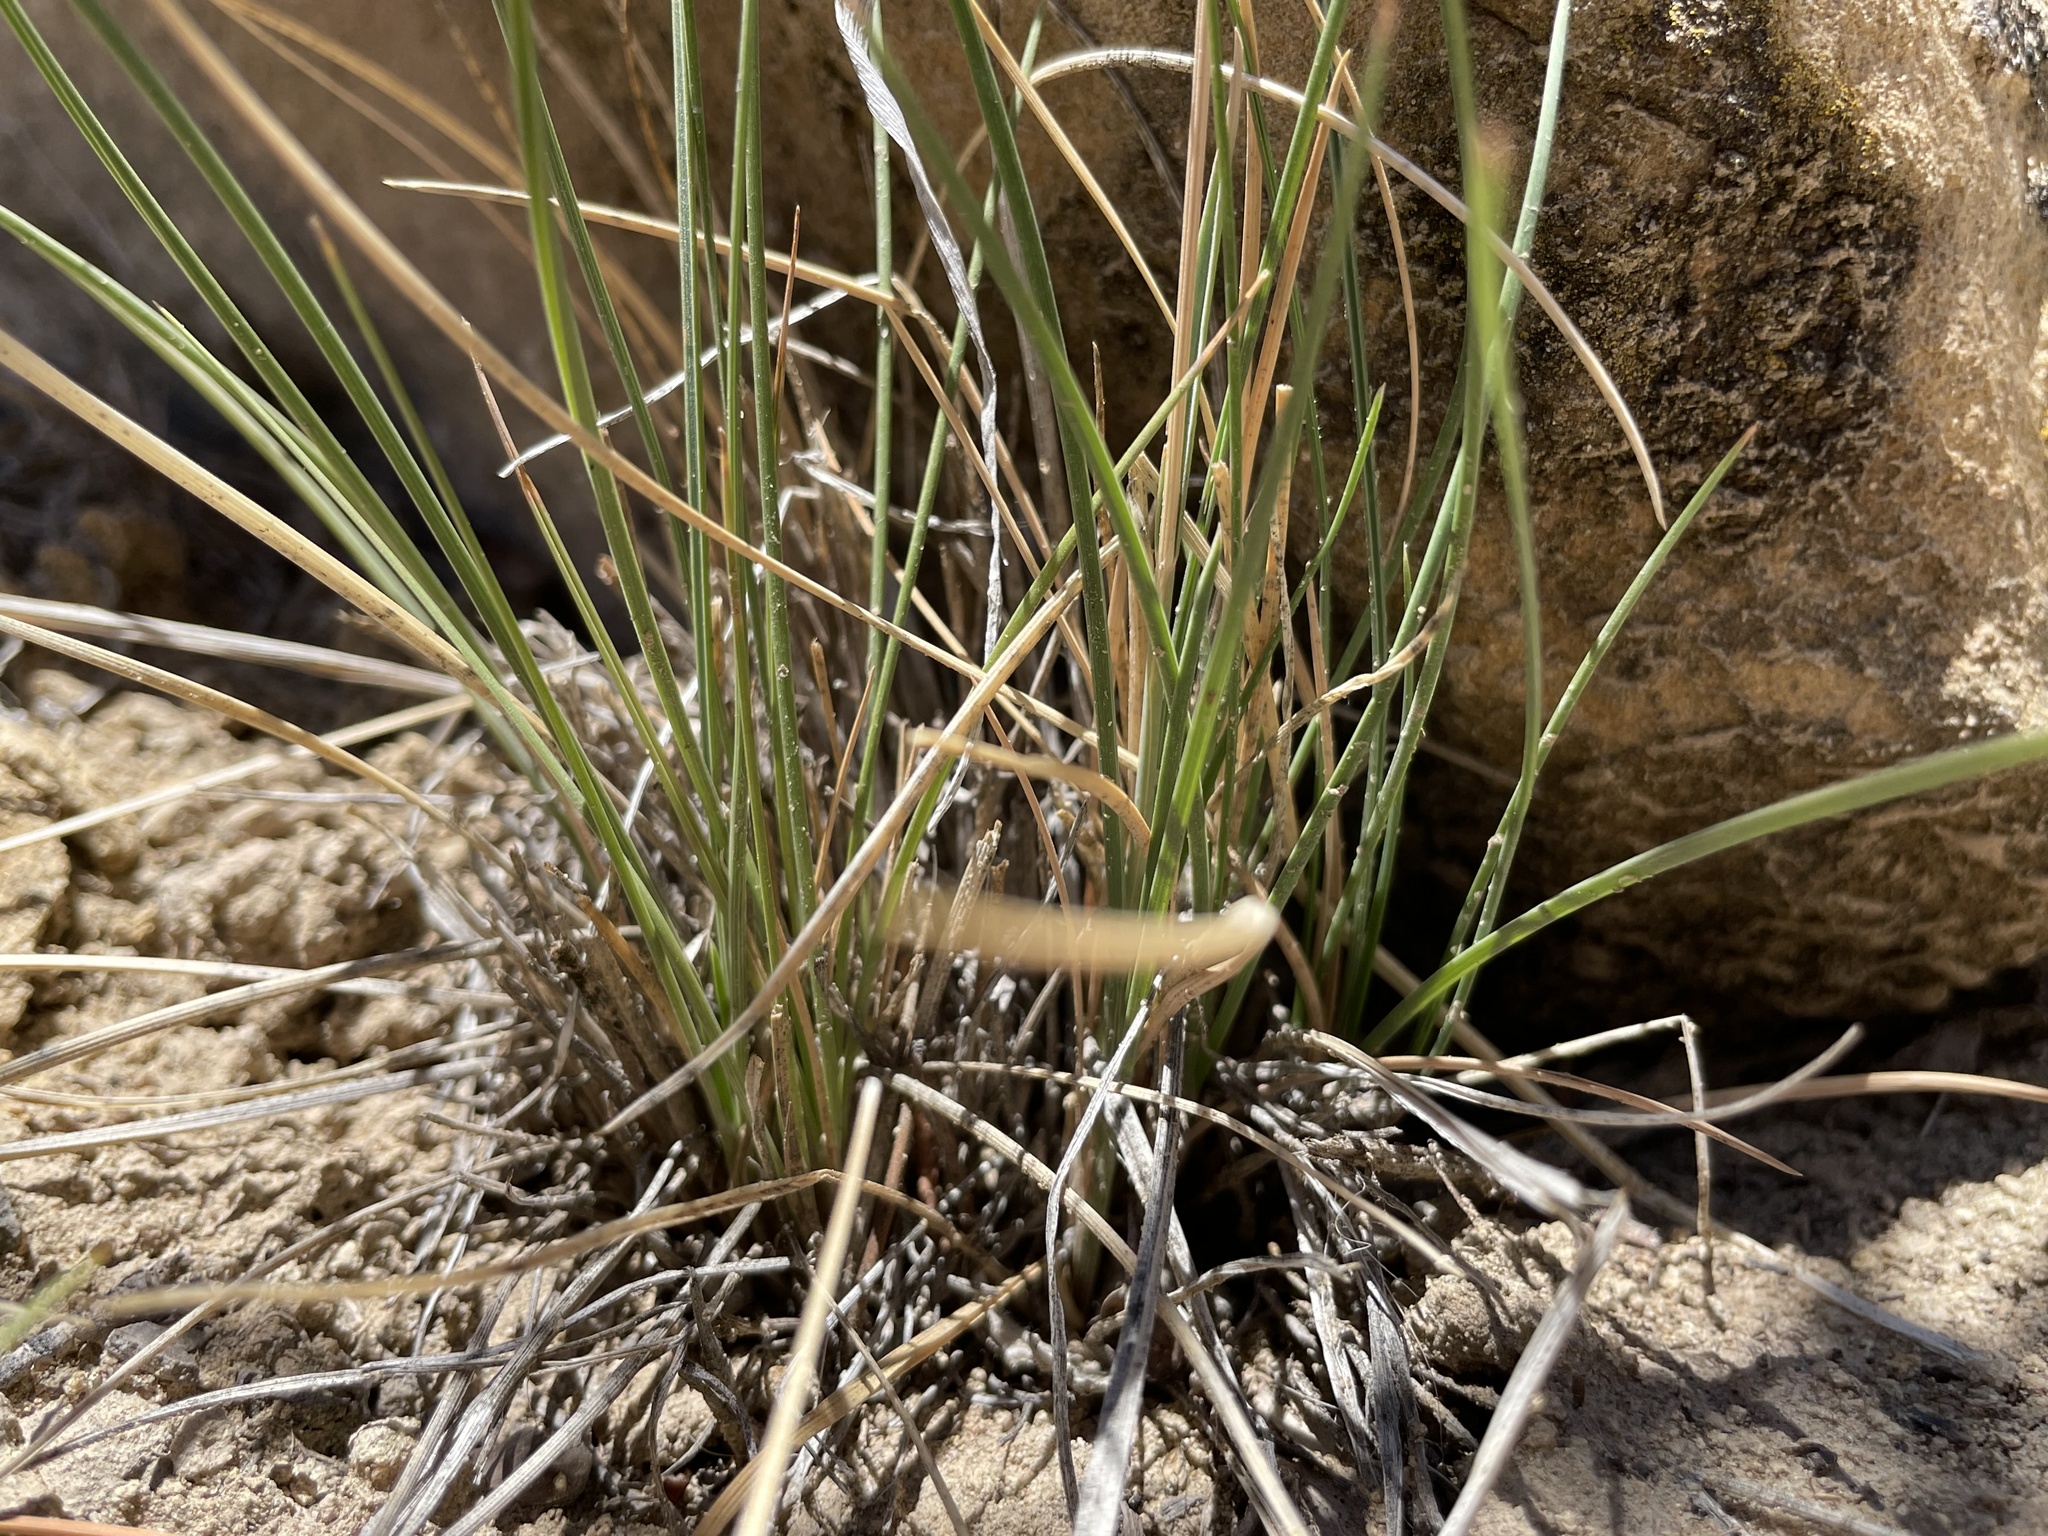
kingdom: Plantae
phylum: Tracheophyta
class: Liliopsida
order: Poales
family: Poaceae
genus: Poa
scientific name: Poa fendleriana
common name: Mutton bluegrass
